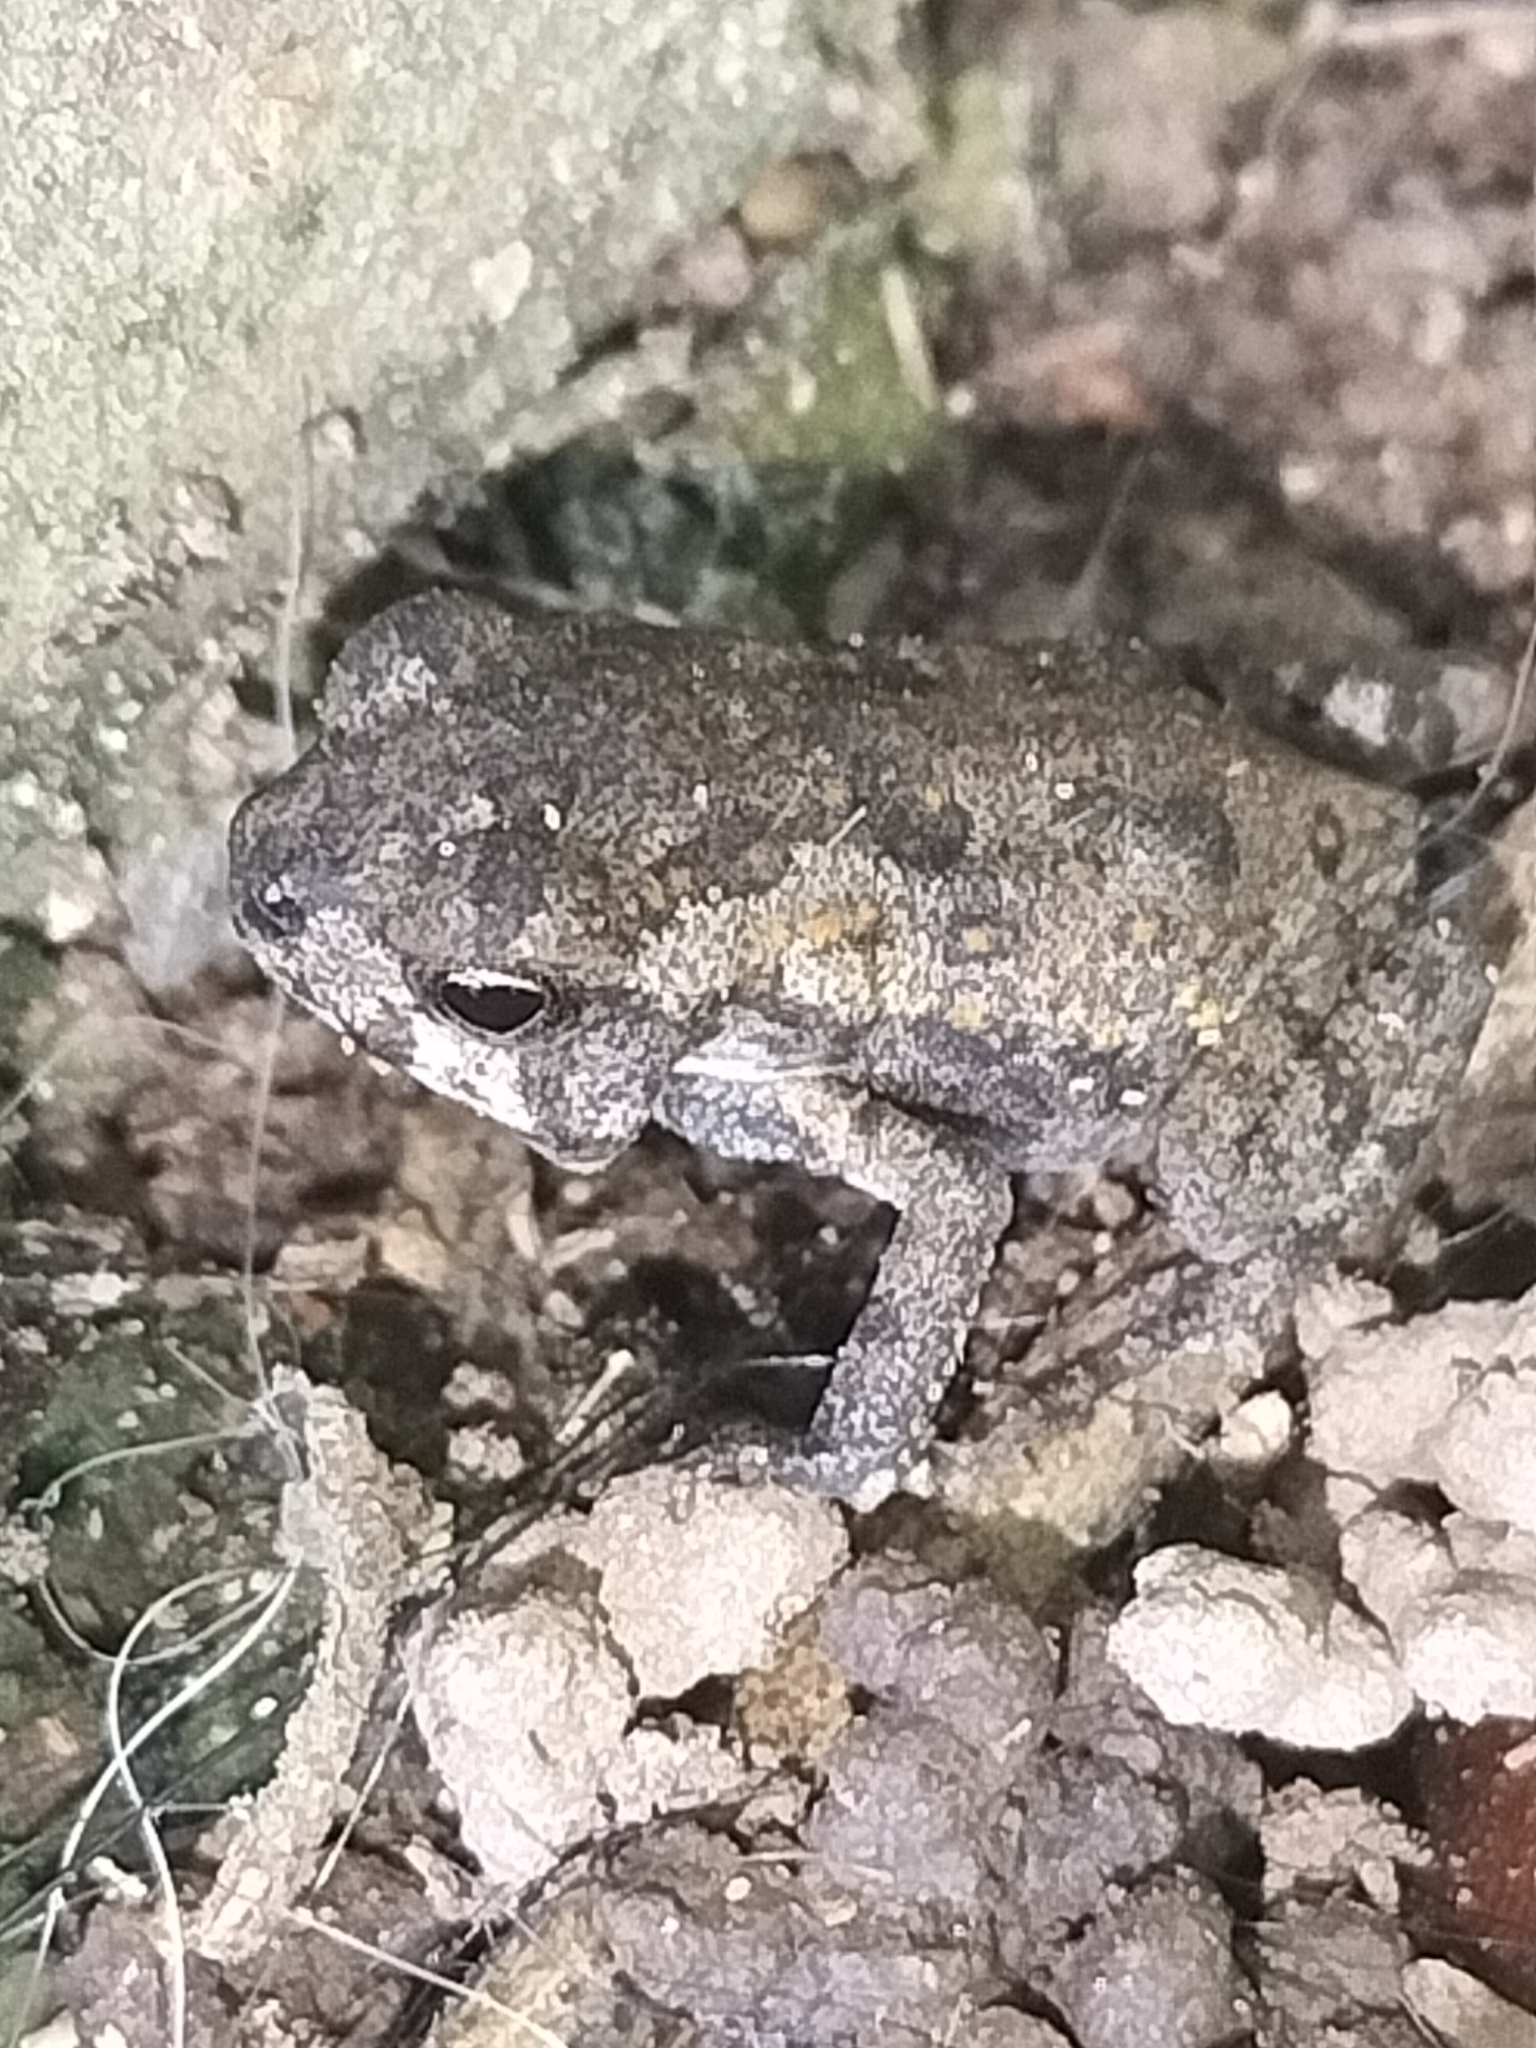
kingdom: Animalia
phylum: Chordata
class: Amphibia
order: Anura
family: Bufonidae
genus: Rhinella
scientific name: Rhinella marina
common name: Cane toad
